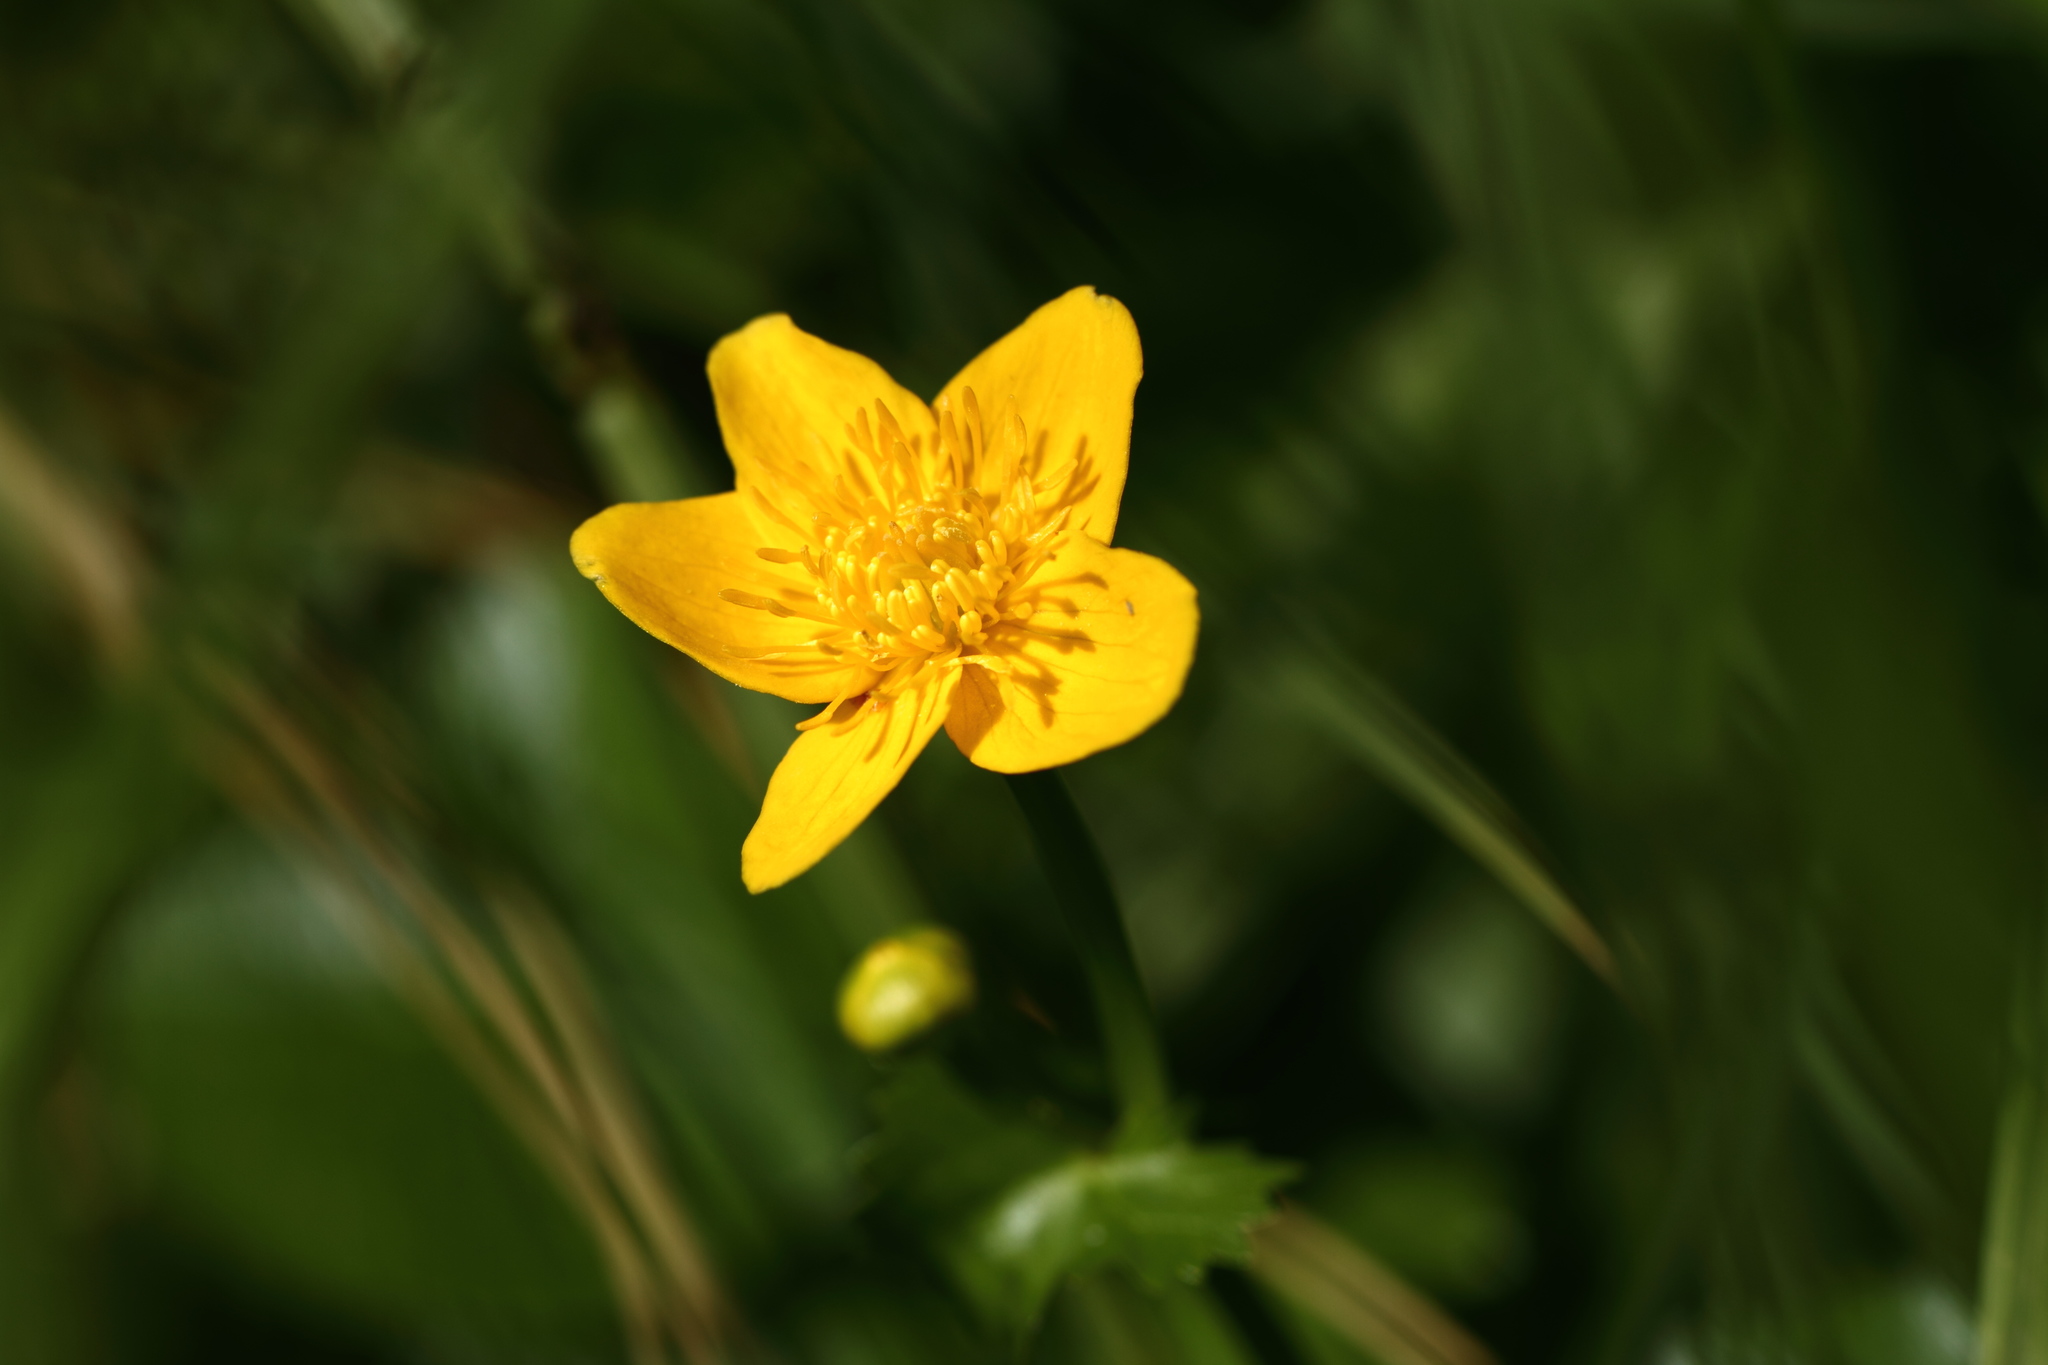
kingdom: Plantae
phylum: Tracheophyta
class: Magnoliopsida
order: Ranunculales
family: Ranunculaceae
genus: Caltha
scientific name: Caltha palustris
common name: Marsh marigold
